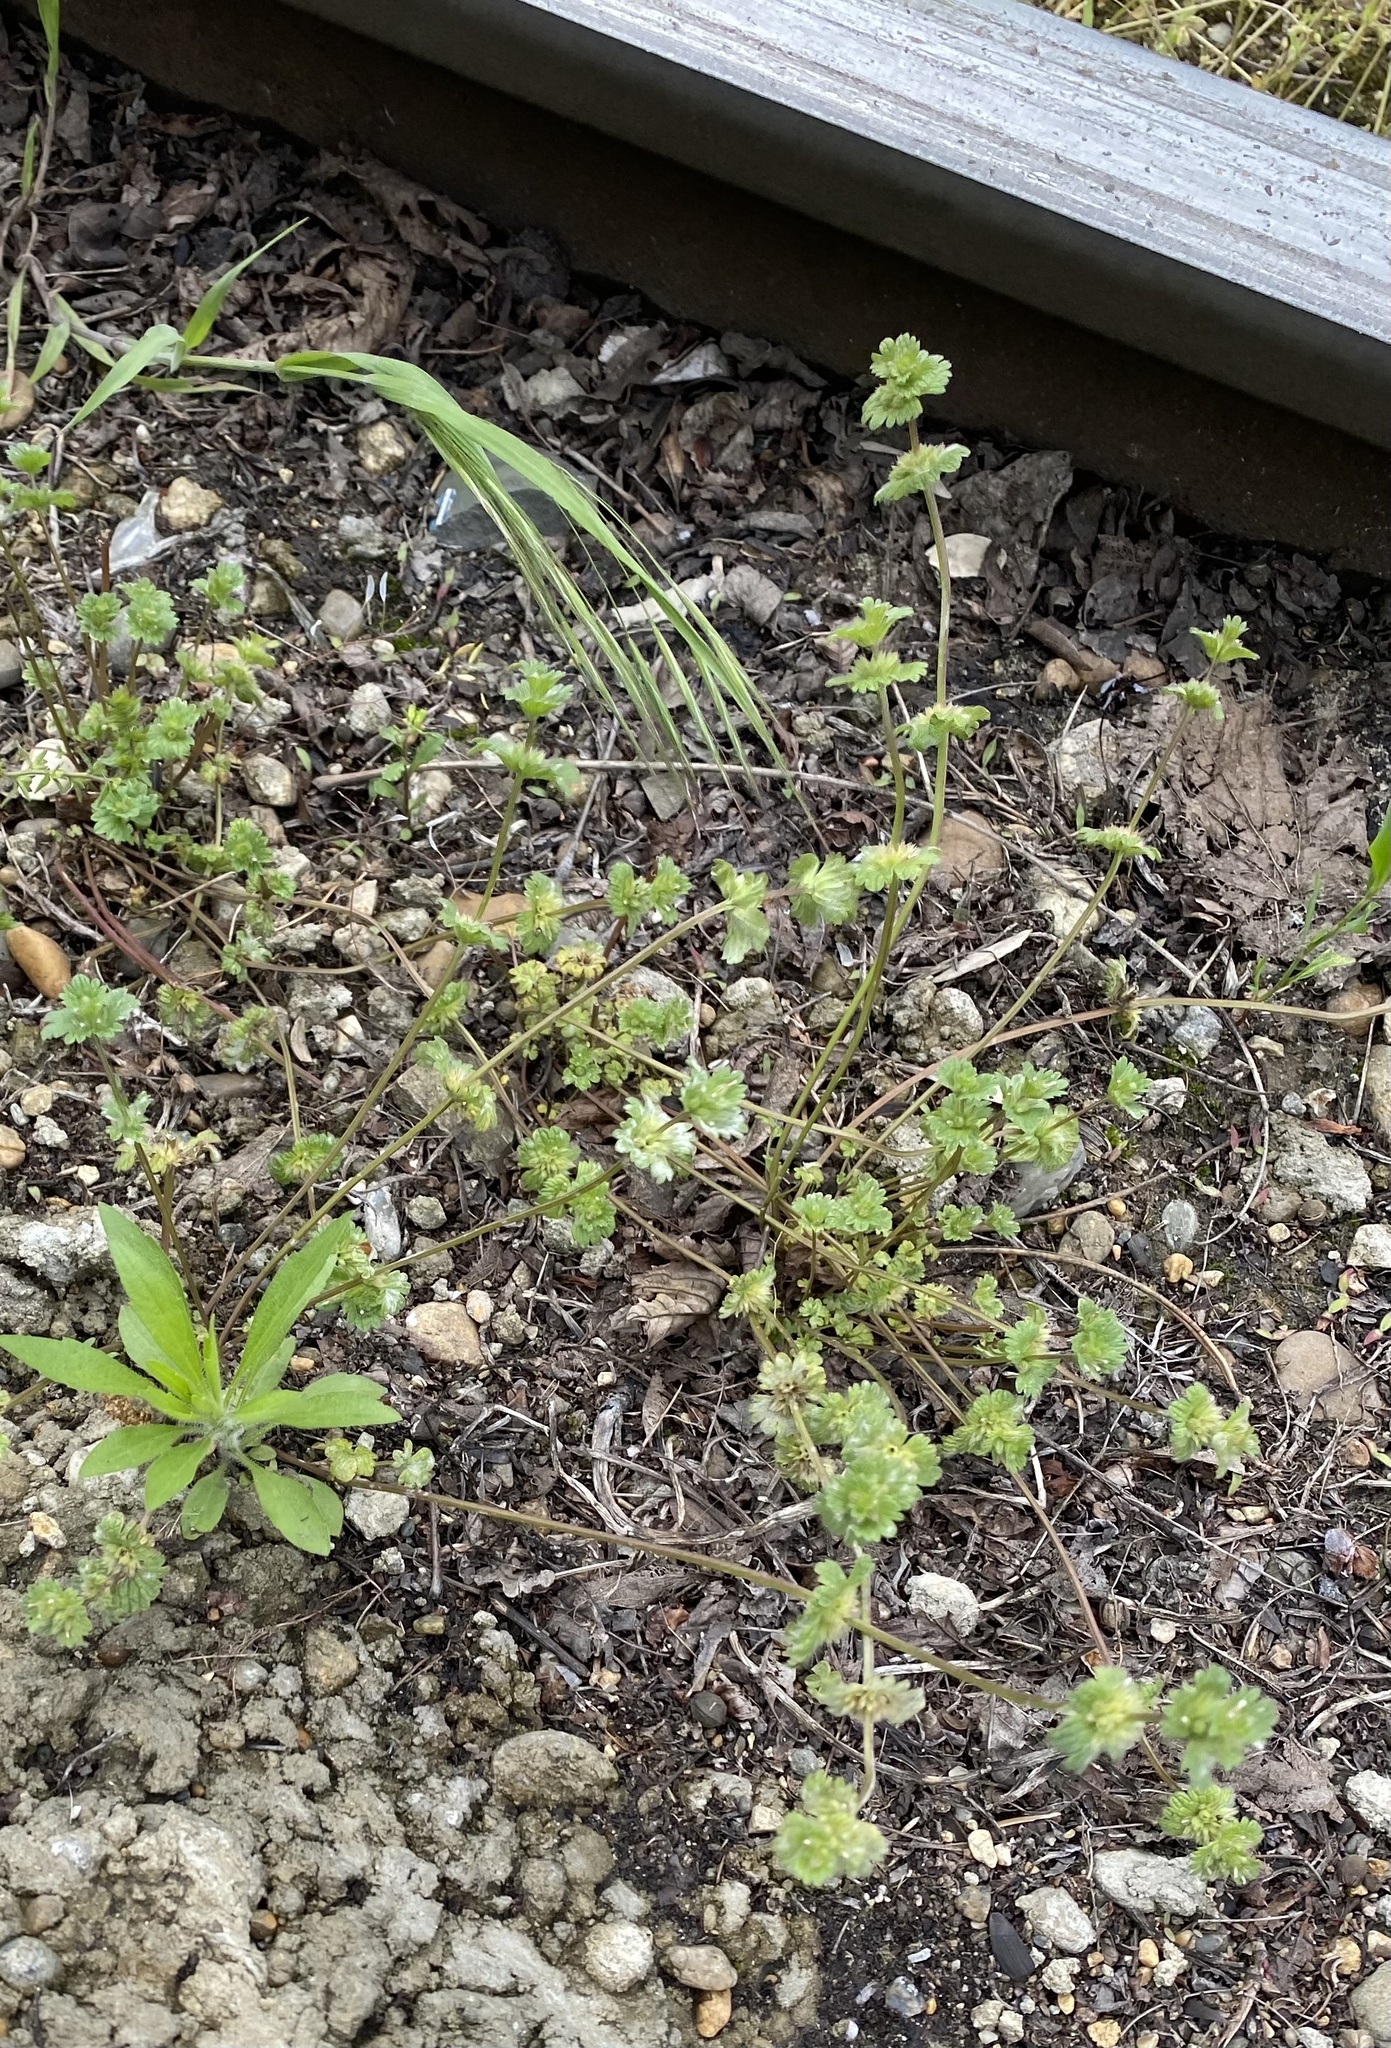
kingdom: Plantae
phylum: Tracheophyta
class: Magnoliopsida
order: Lamiales
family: Lamiaceae
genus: Lamium
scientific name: Lamium amplexicaule
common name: Henbit dead-nettle
